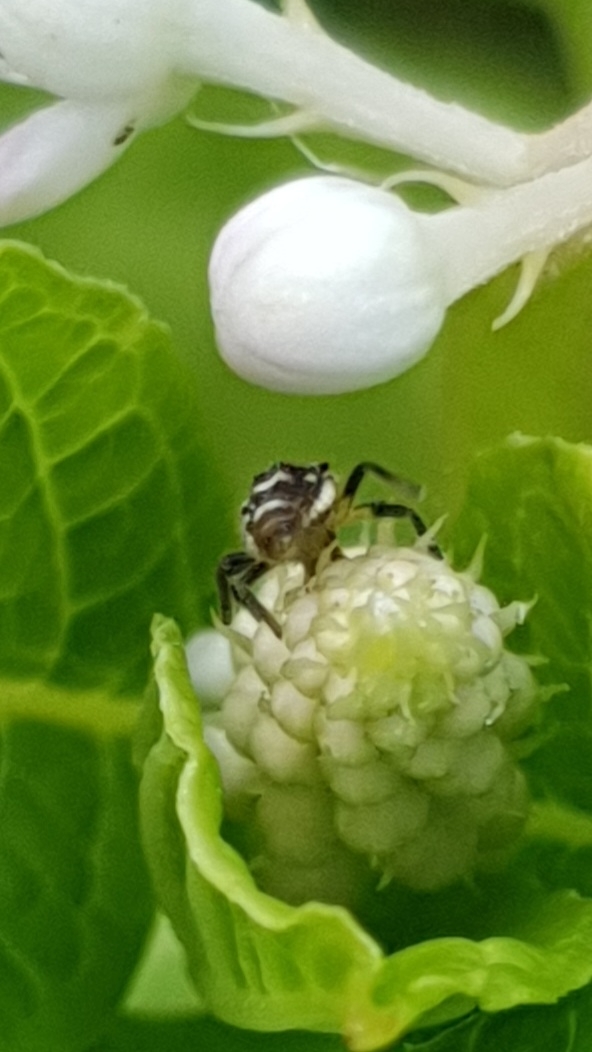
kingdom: Animalia
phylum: Arthropoda
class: Insecta
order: Coleoptera
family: Coccinellidae
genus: Propylaea
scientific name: Propylaea quatuordecimpunctata
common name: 14-spotted ladybird beetle
